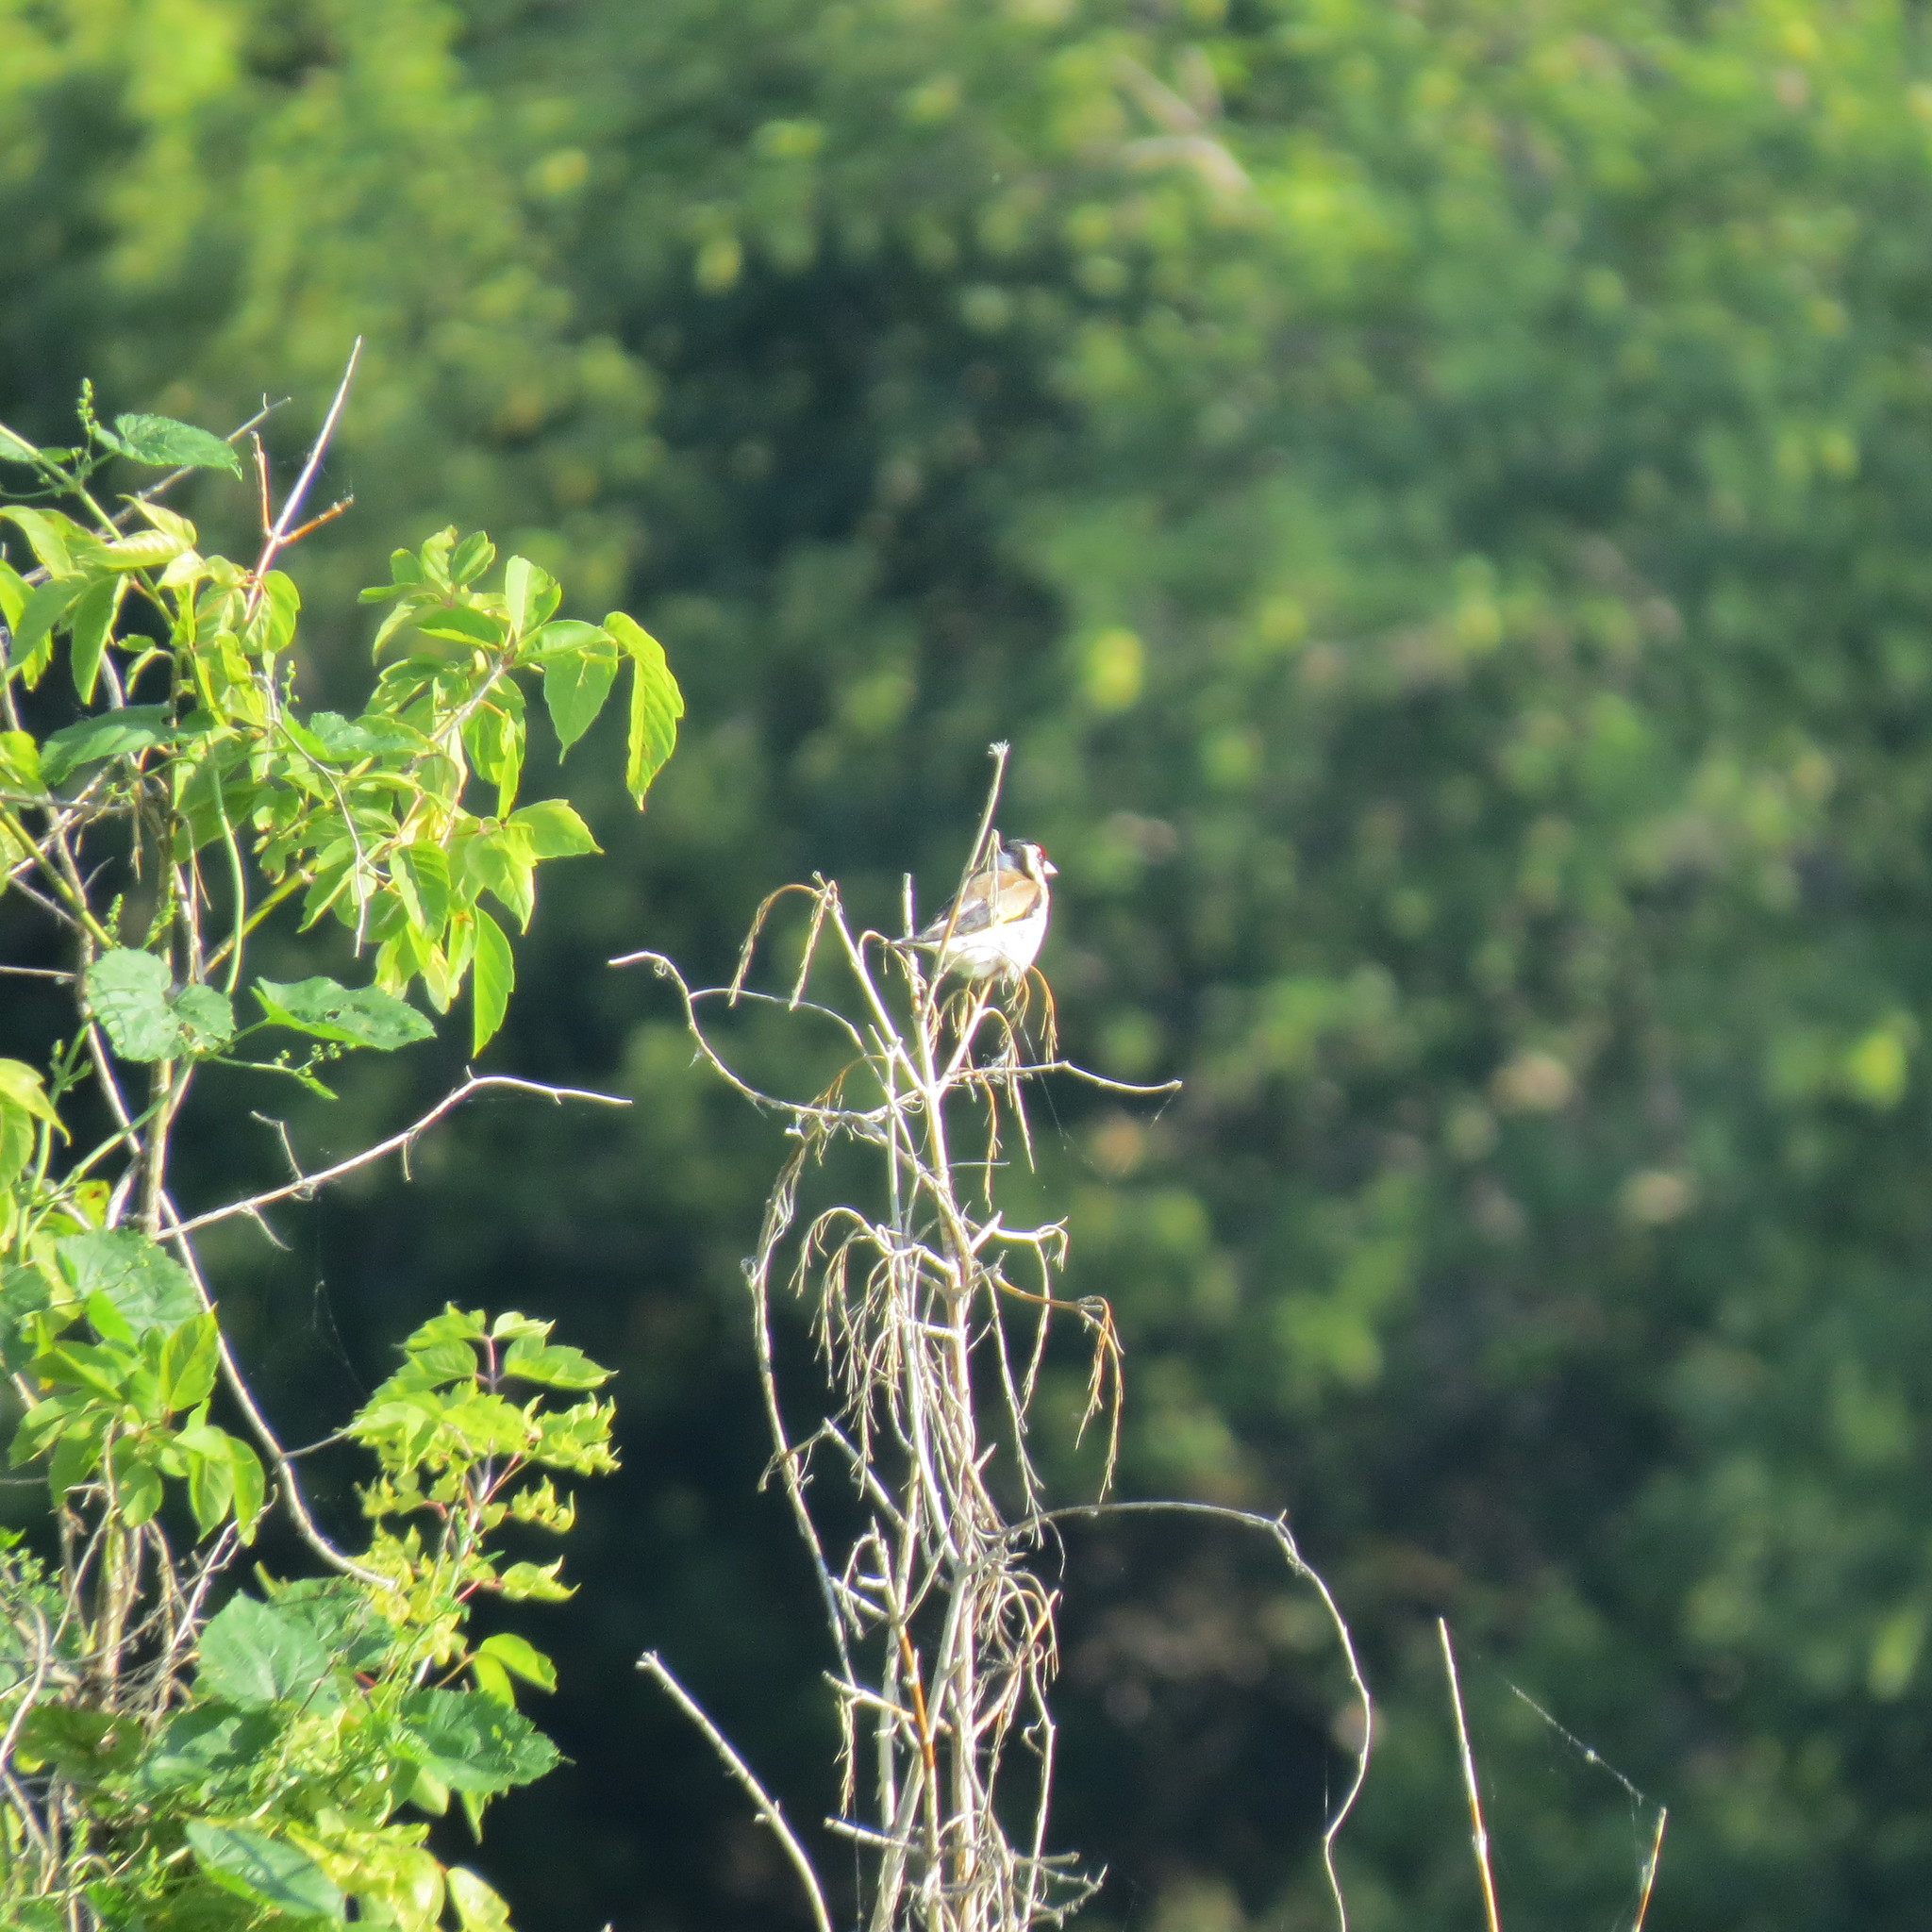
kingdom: Animalia
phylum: Chordata
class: Aves
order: Passeriformes
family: Fringillidae
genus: Carduelis
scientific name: Carduelis carduelis
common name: European goldfinch
